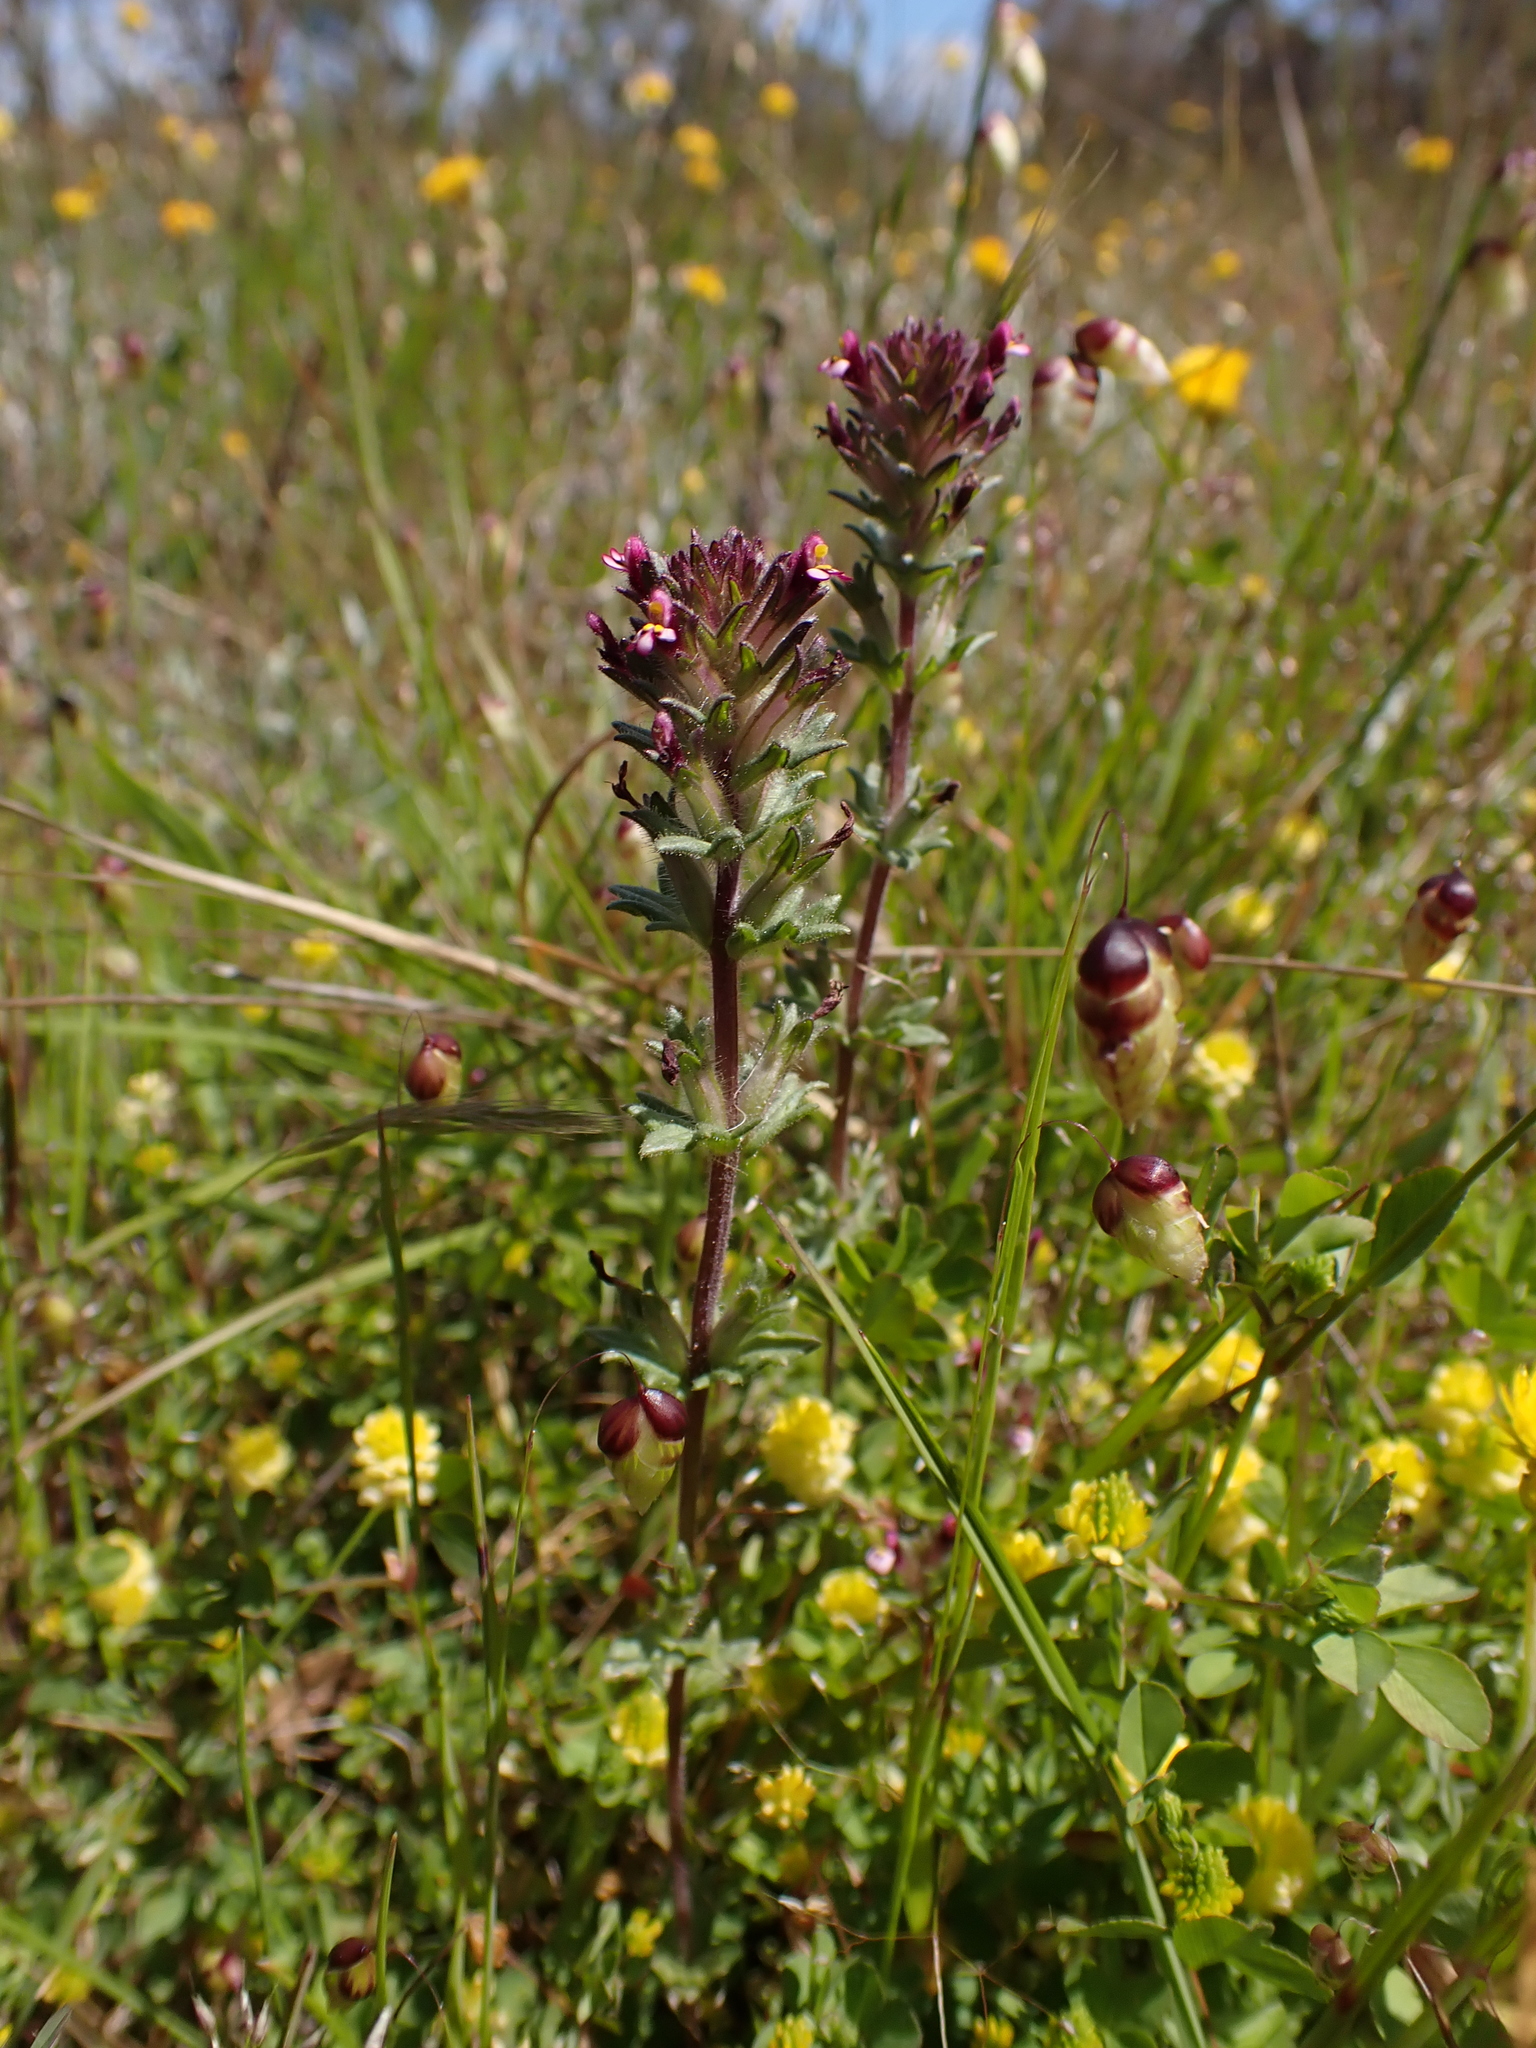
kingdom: Plantae
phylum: Tracheophyta
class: Magnoliopsida
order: Lamiales
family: Orobanchaceae
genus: Parentucellia
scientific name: Parentucellia latifolia
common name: Broadleaf glandweed
